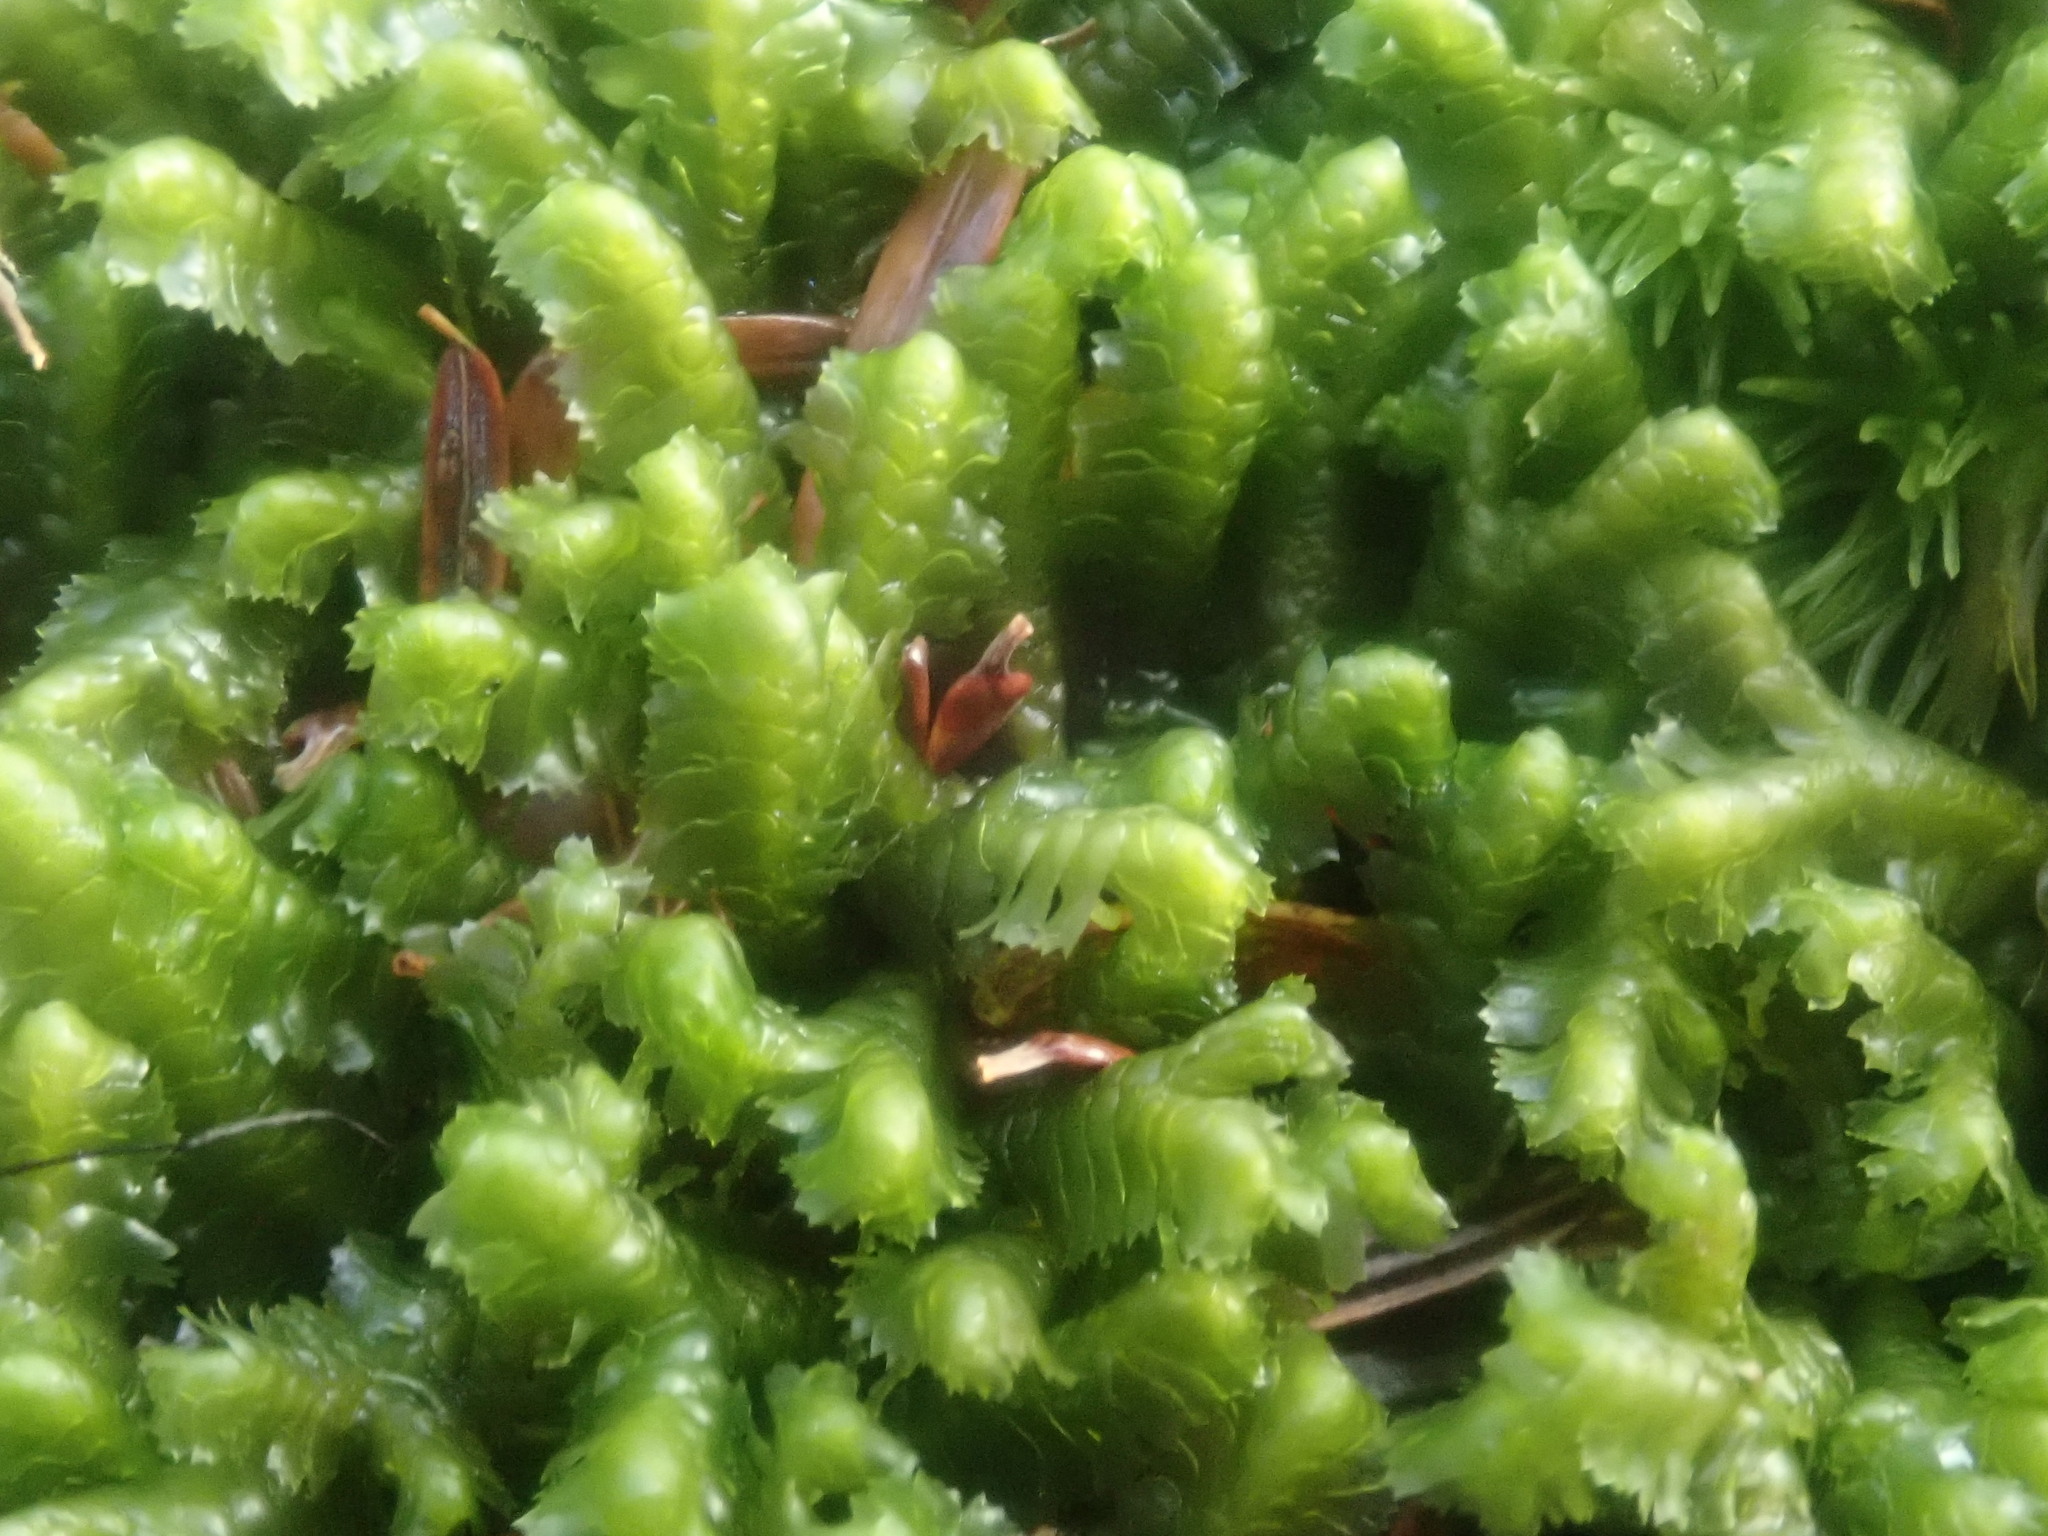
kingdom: Plantae
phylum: Marchantiophyta
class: Jungermanniopsida
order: Jungermanniales
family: Lepidoziaceae
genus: Bazzania
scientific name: Bazzania trilobata
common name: Three-lobed whipwort
